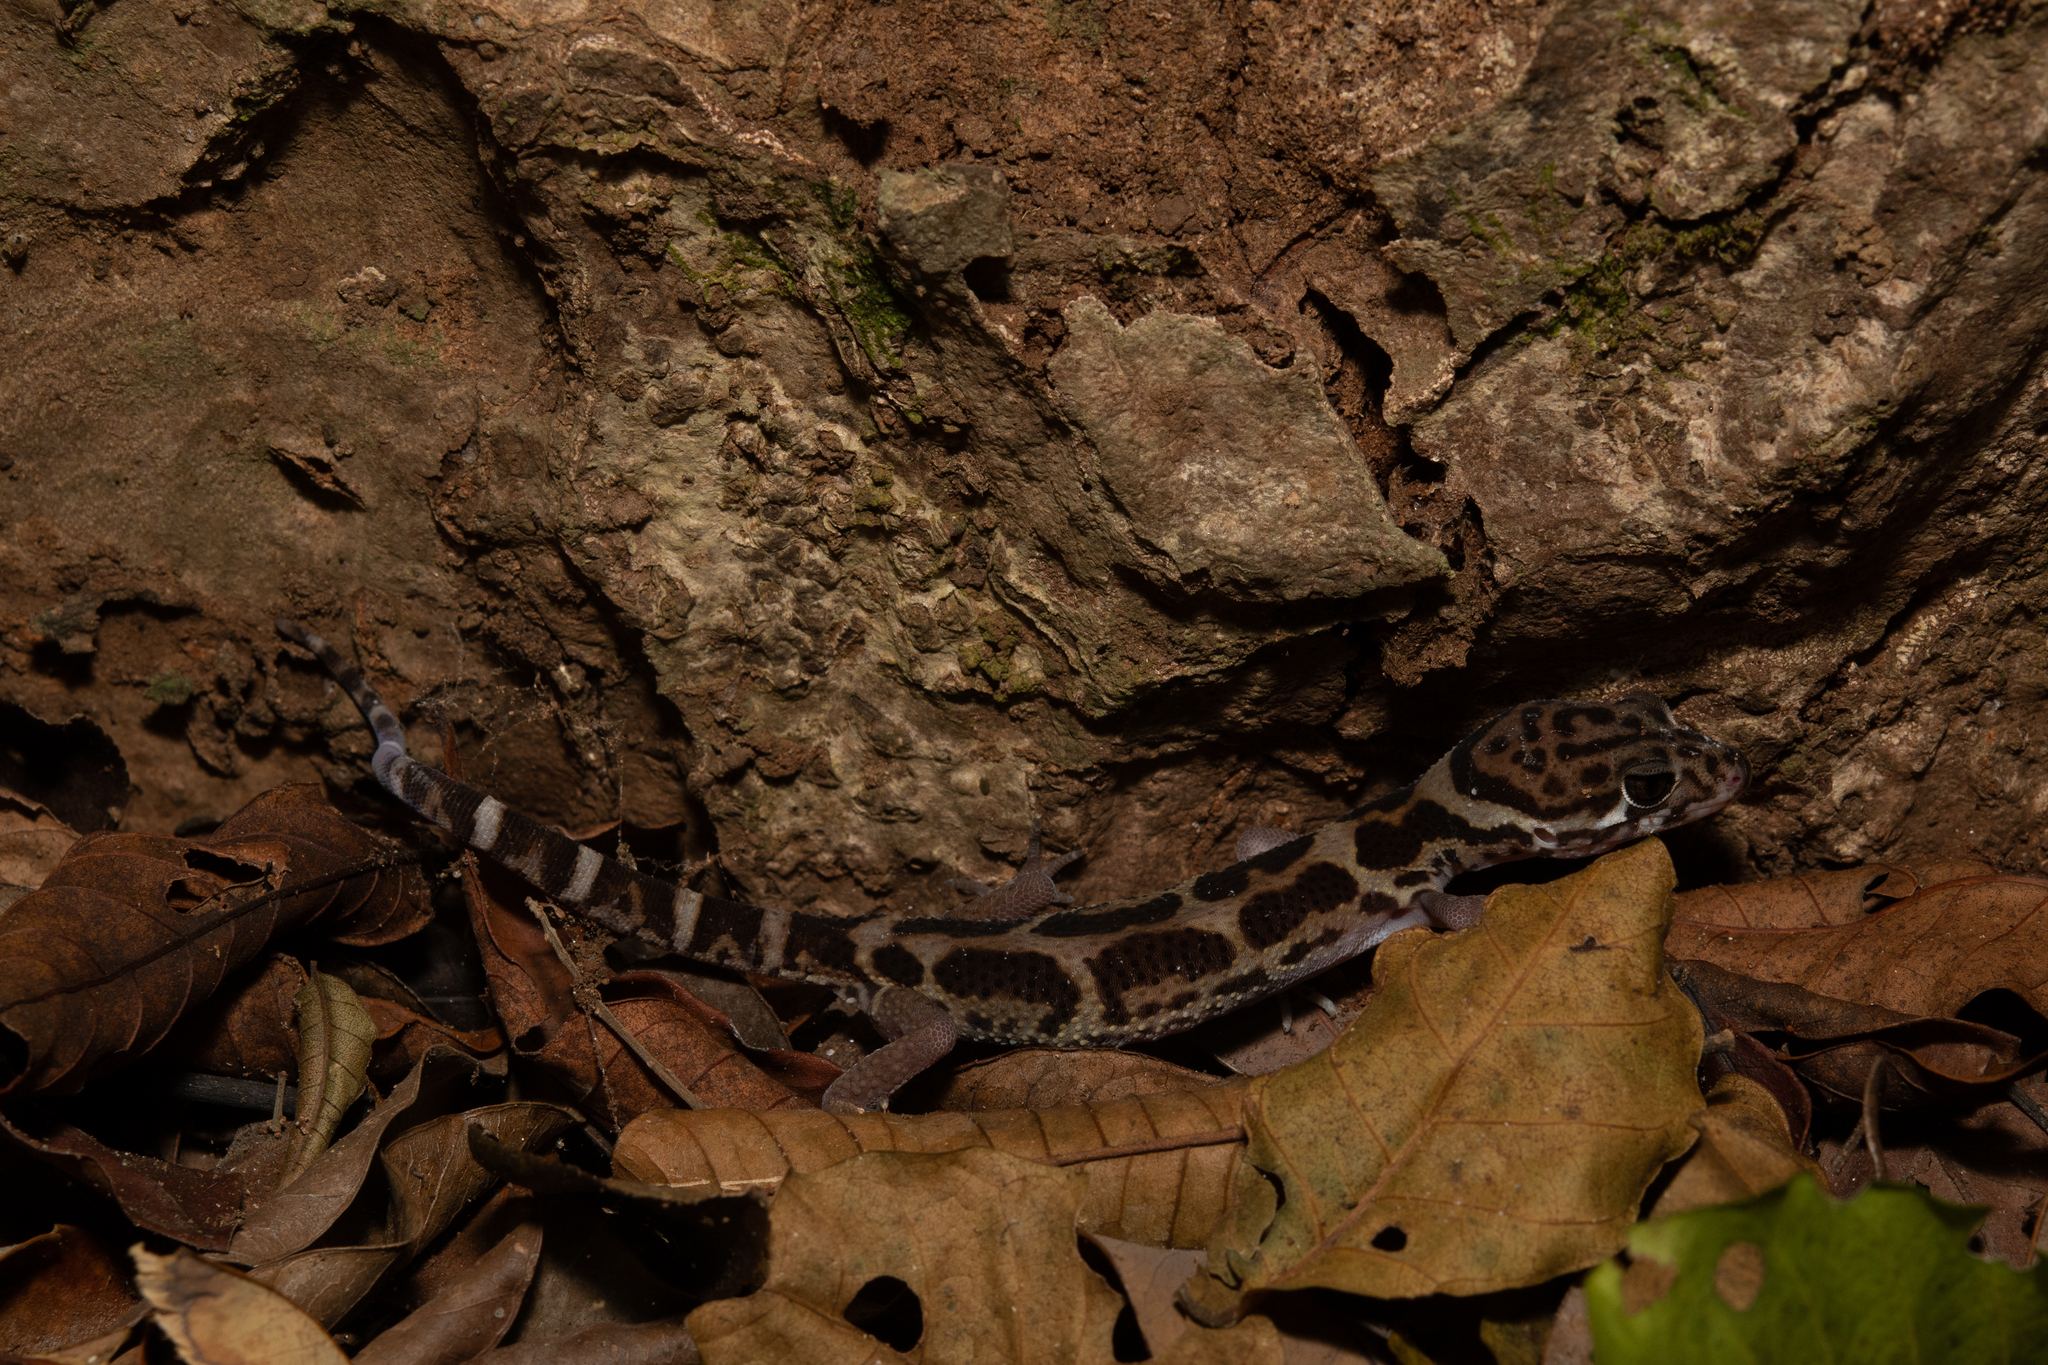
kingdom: Animalia
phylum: Chordata
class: Squamata
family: Eublepharidae
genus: Coleonyx
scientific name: Coleonyx mitratus
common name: Central american banded gecko
